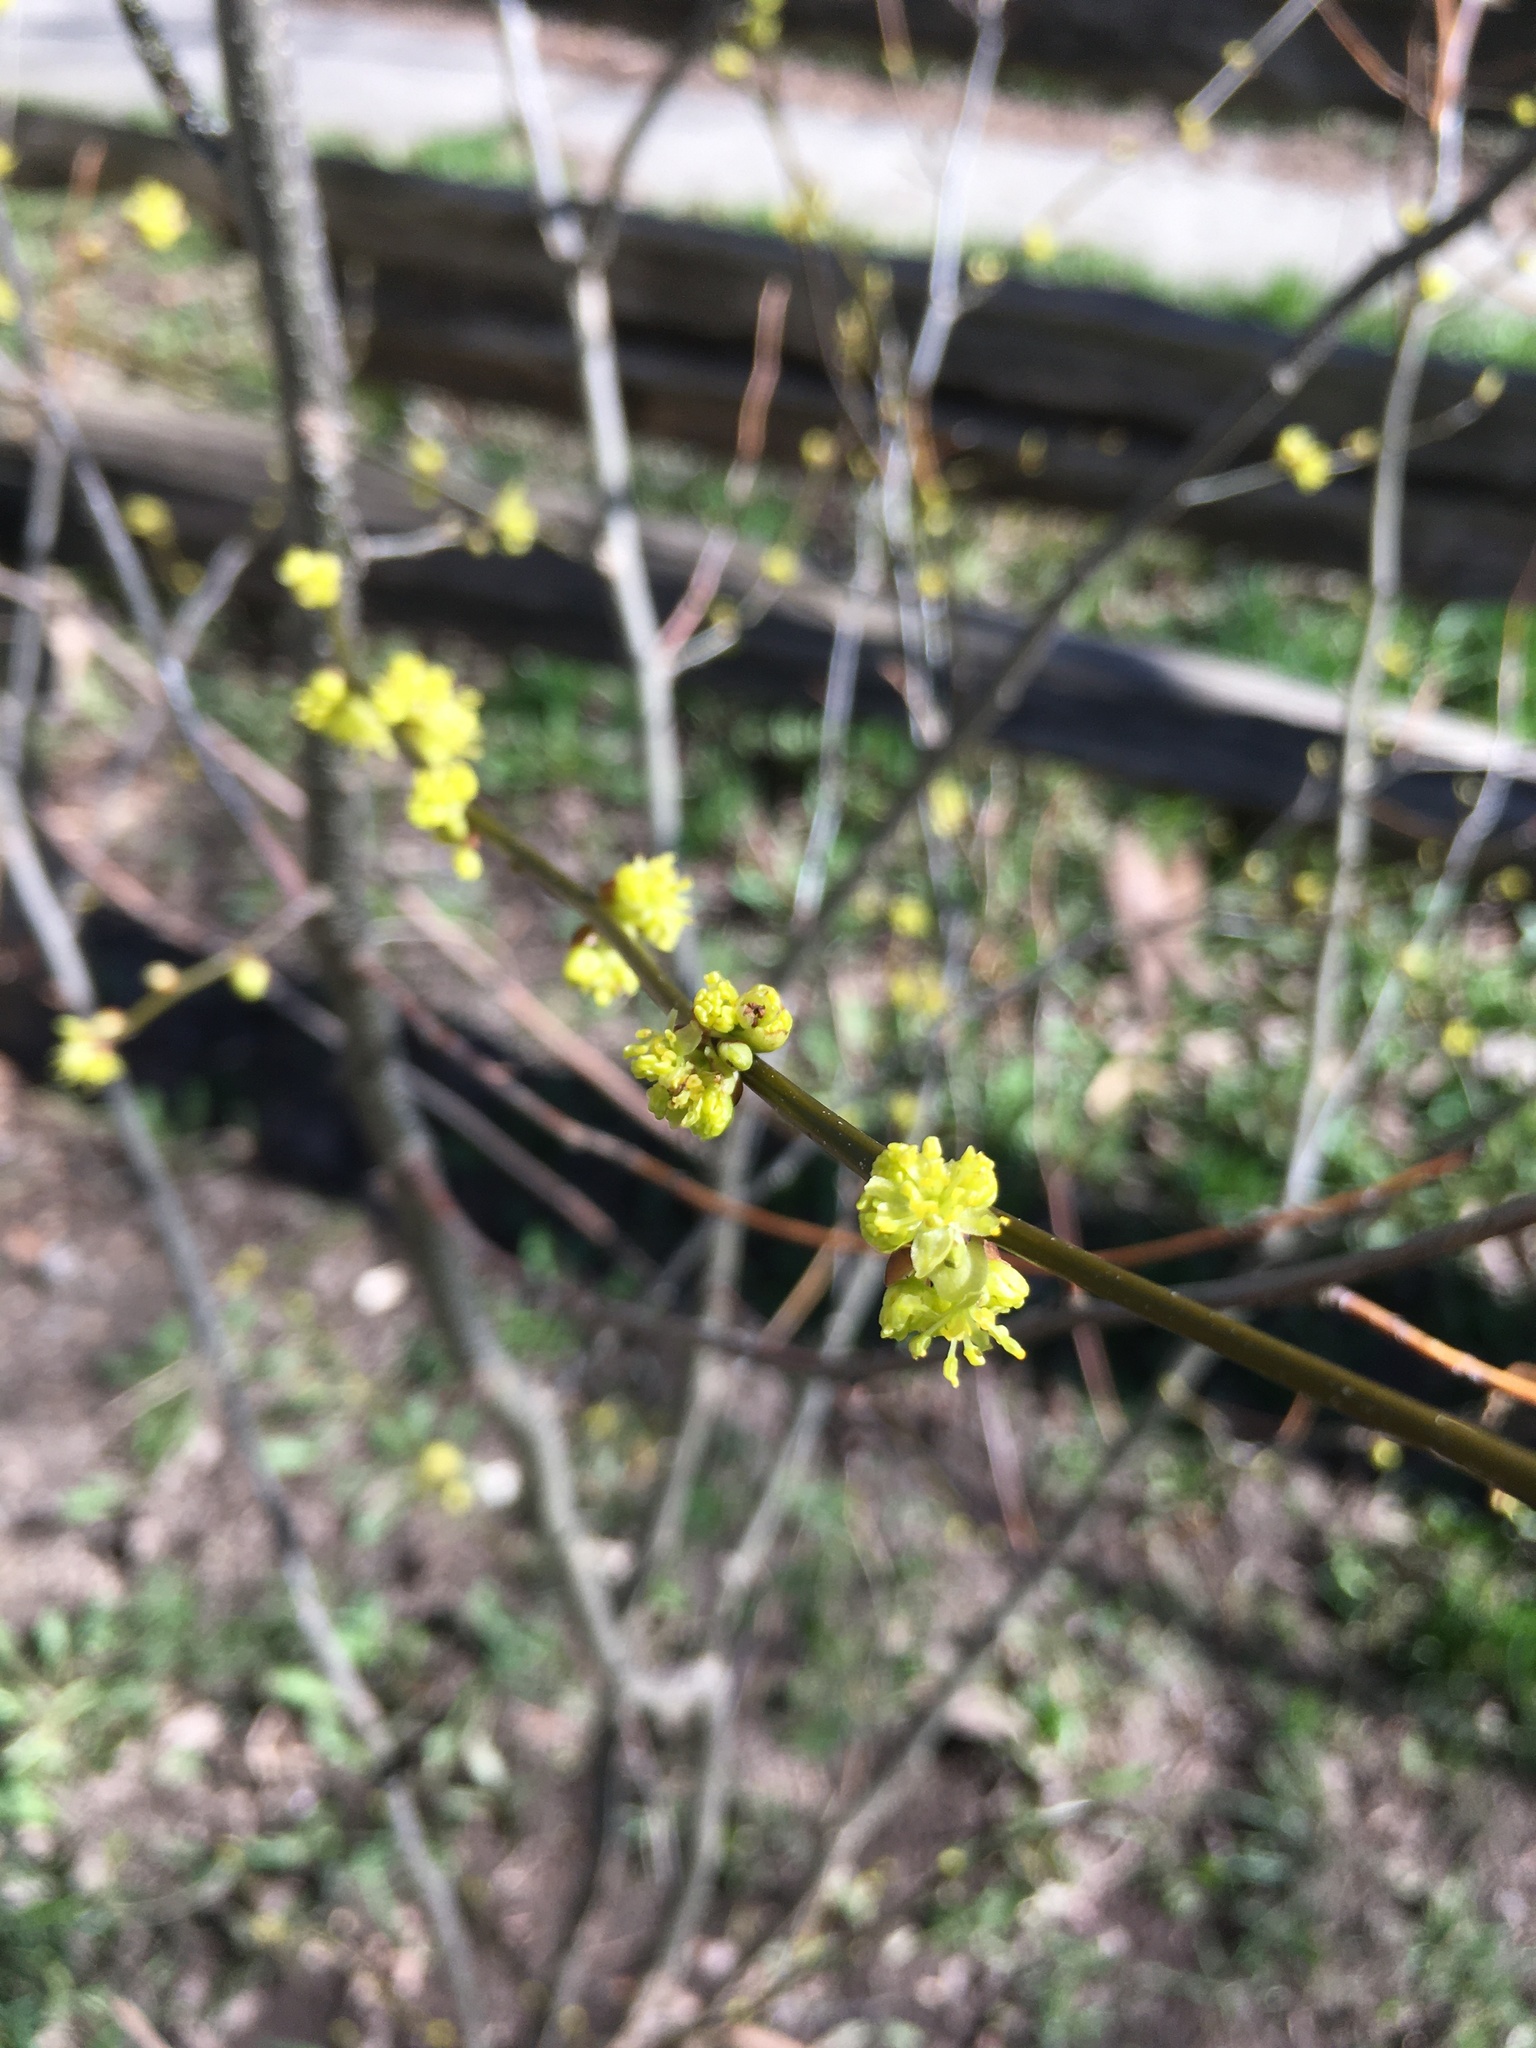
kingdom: Plantae
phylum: Tracheophyta
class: Magnoliopsida
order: Laurales
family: Lauraceae
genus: Lindera
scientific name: Lindera benzoin
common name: Spicebush
